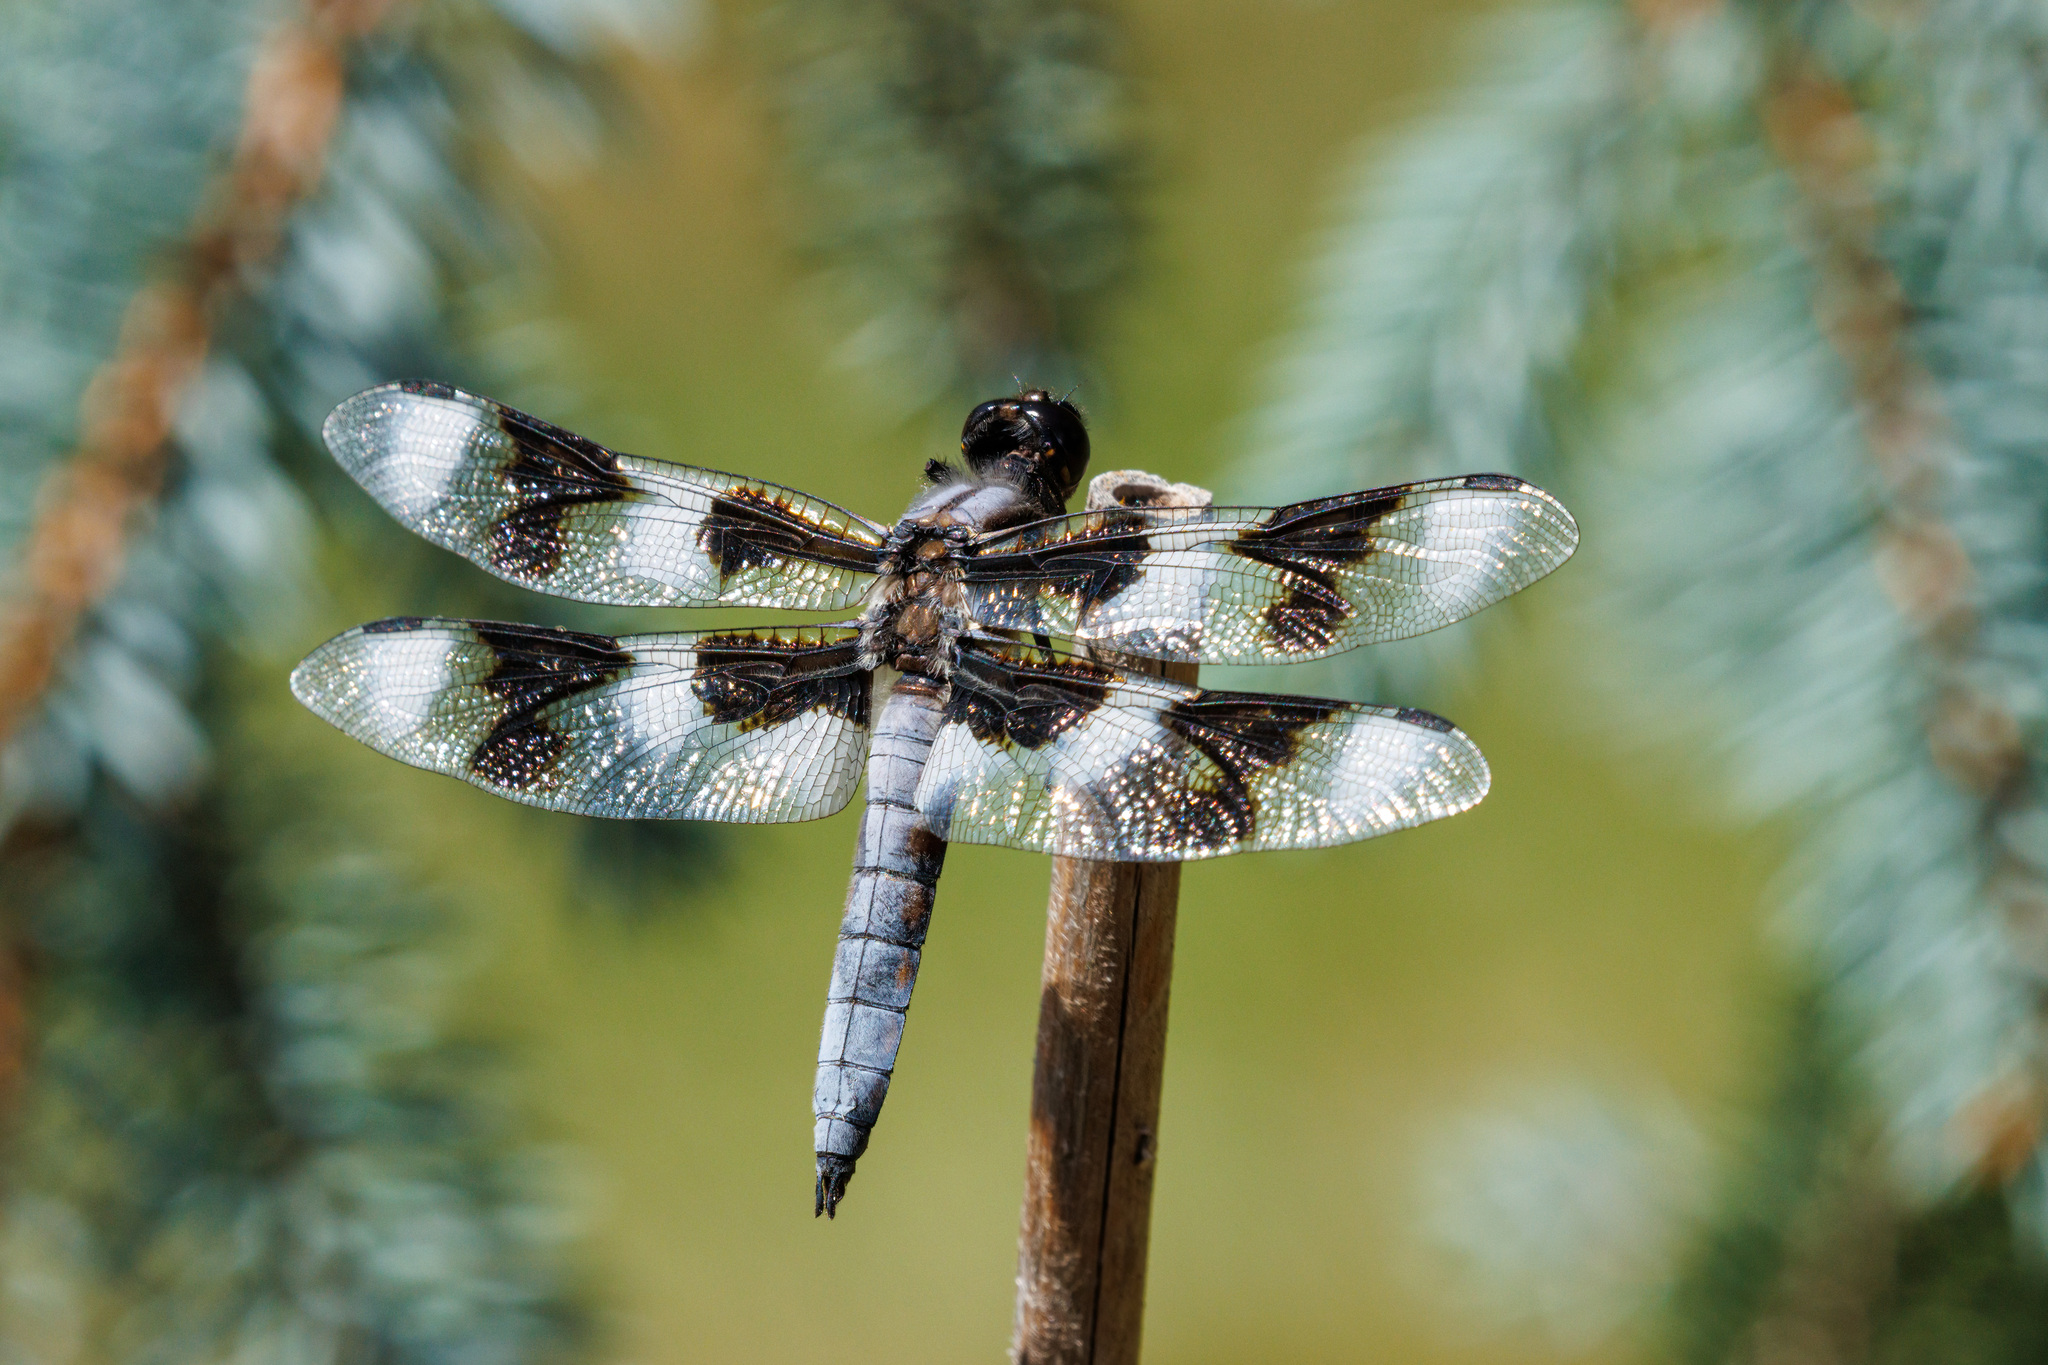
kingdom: Animalia
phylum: Arthropoda
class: Insecta
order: Odonata
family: Libellulidae
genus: Libellula
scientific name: Libellula forensis
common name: Eight-spotted skimmer
